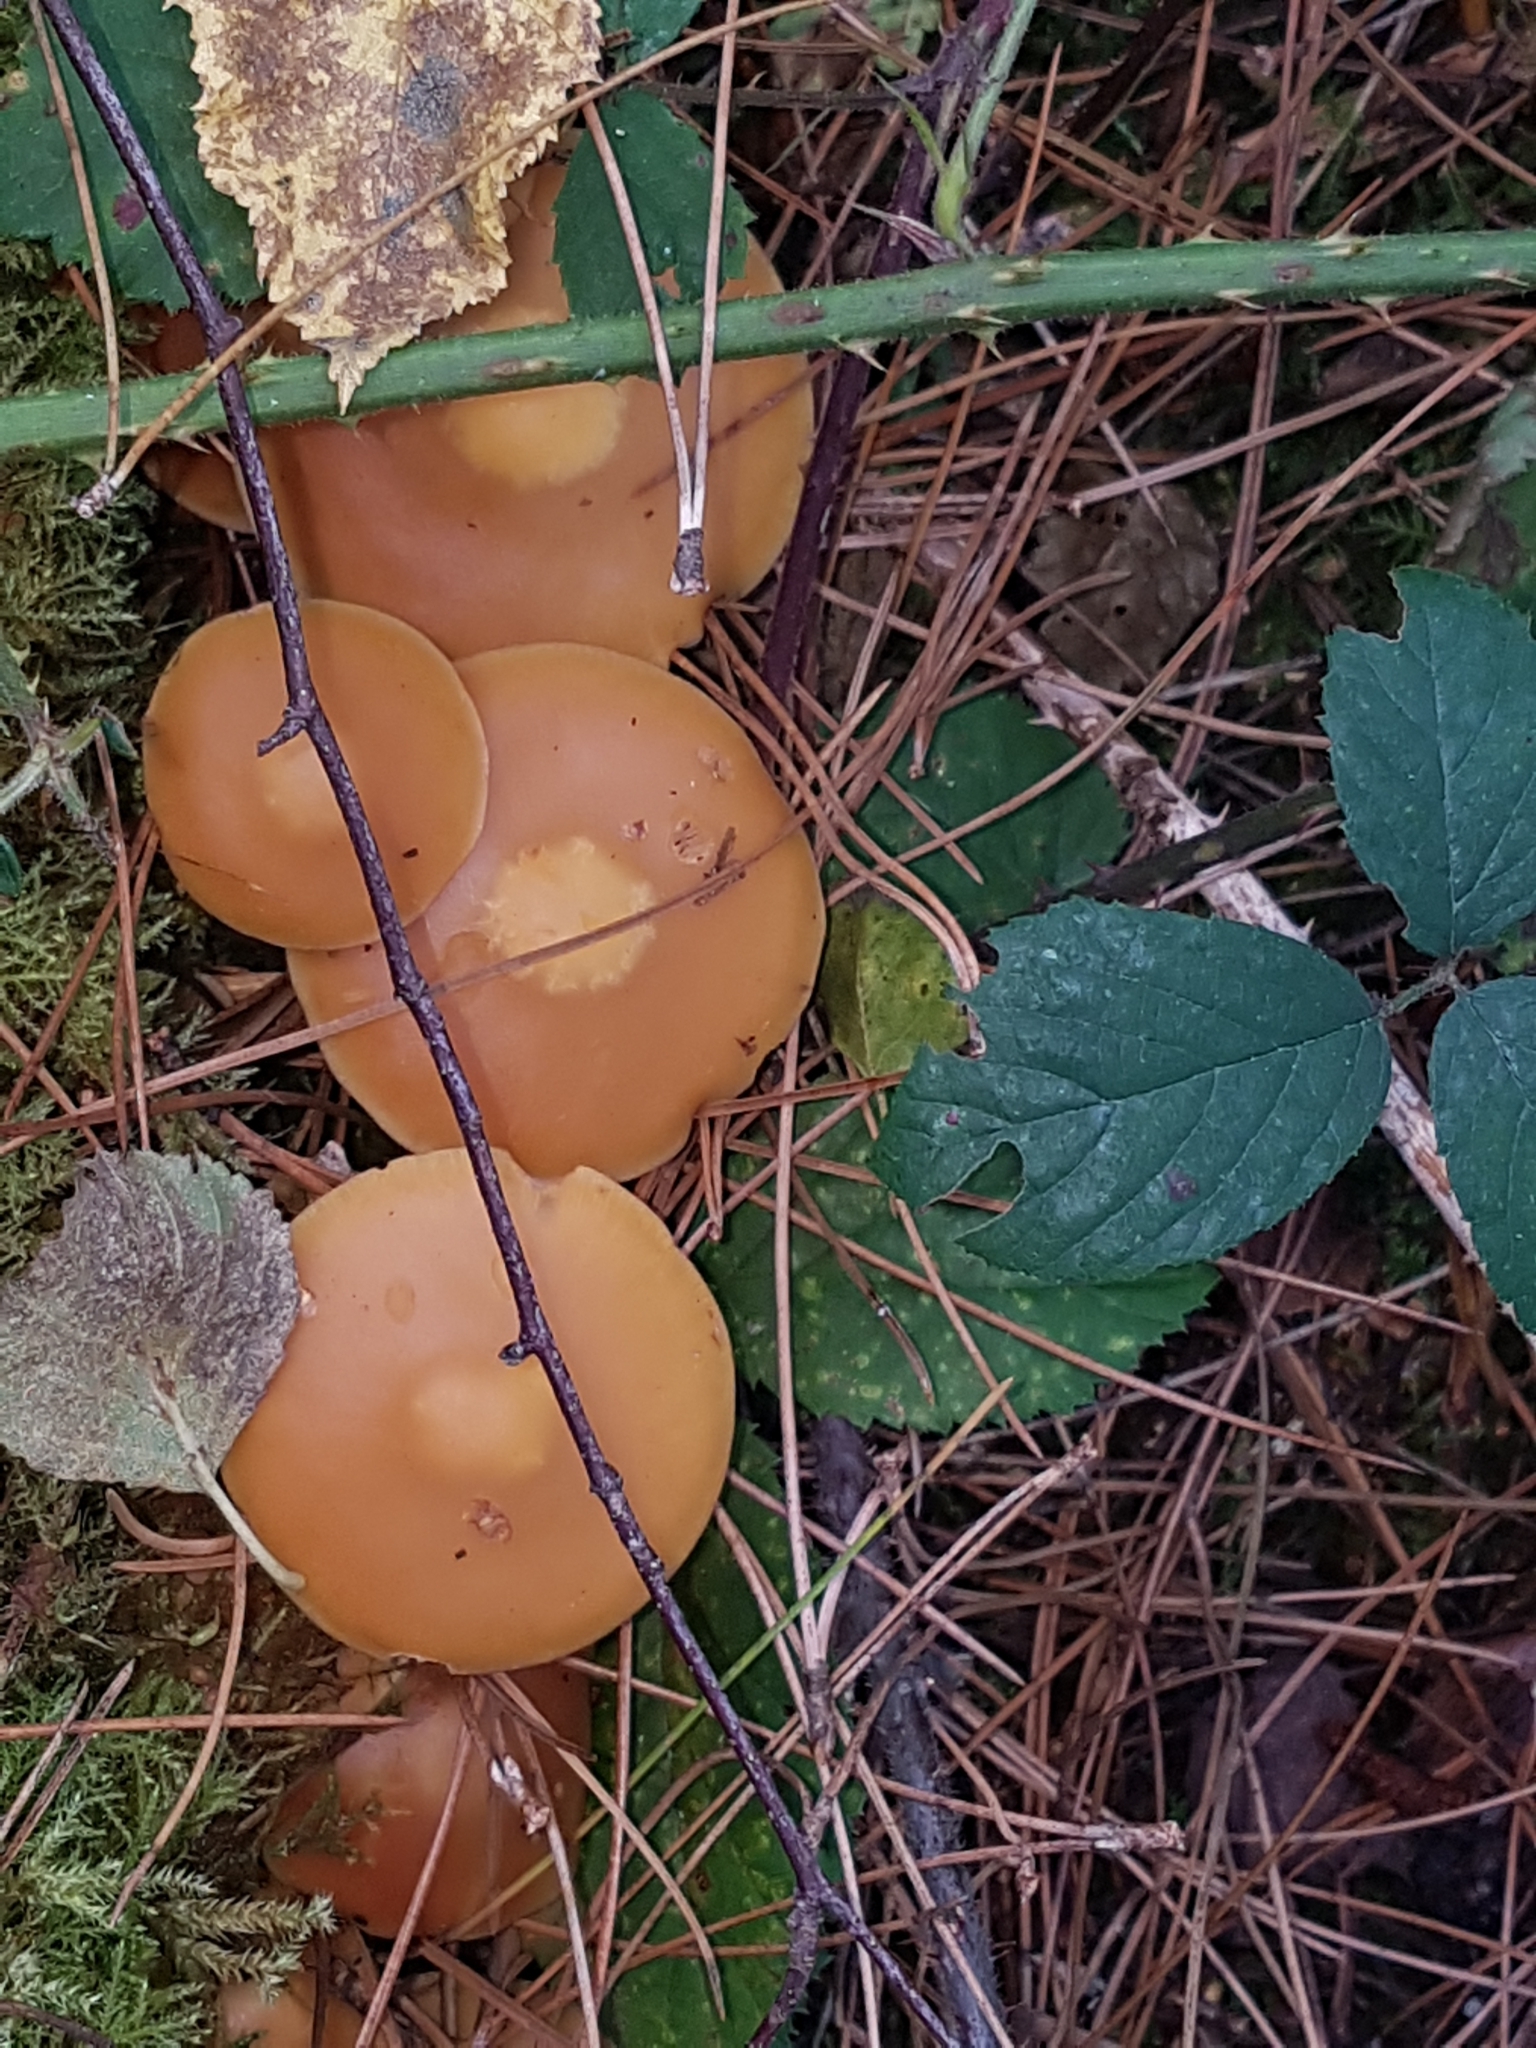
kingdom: Fungi
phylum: Basidiomycota
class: Agaricomycetes
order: Agaricales
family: Strophariaceae
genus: Kuehneromyces
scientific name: Kuehneromyces mutabilis
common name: Sheathed woodtuft
